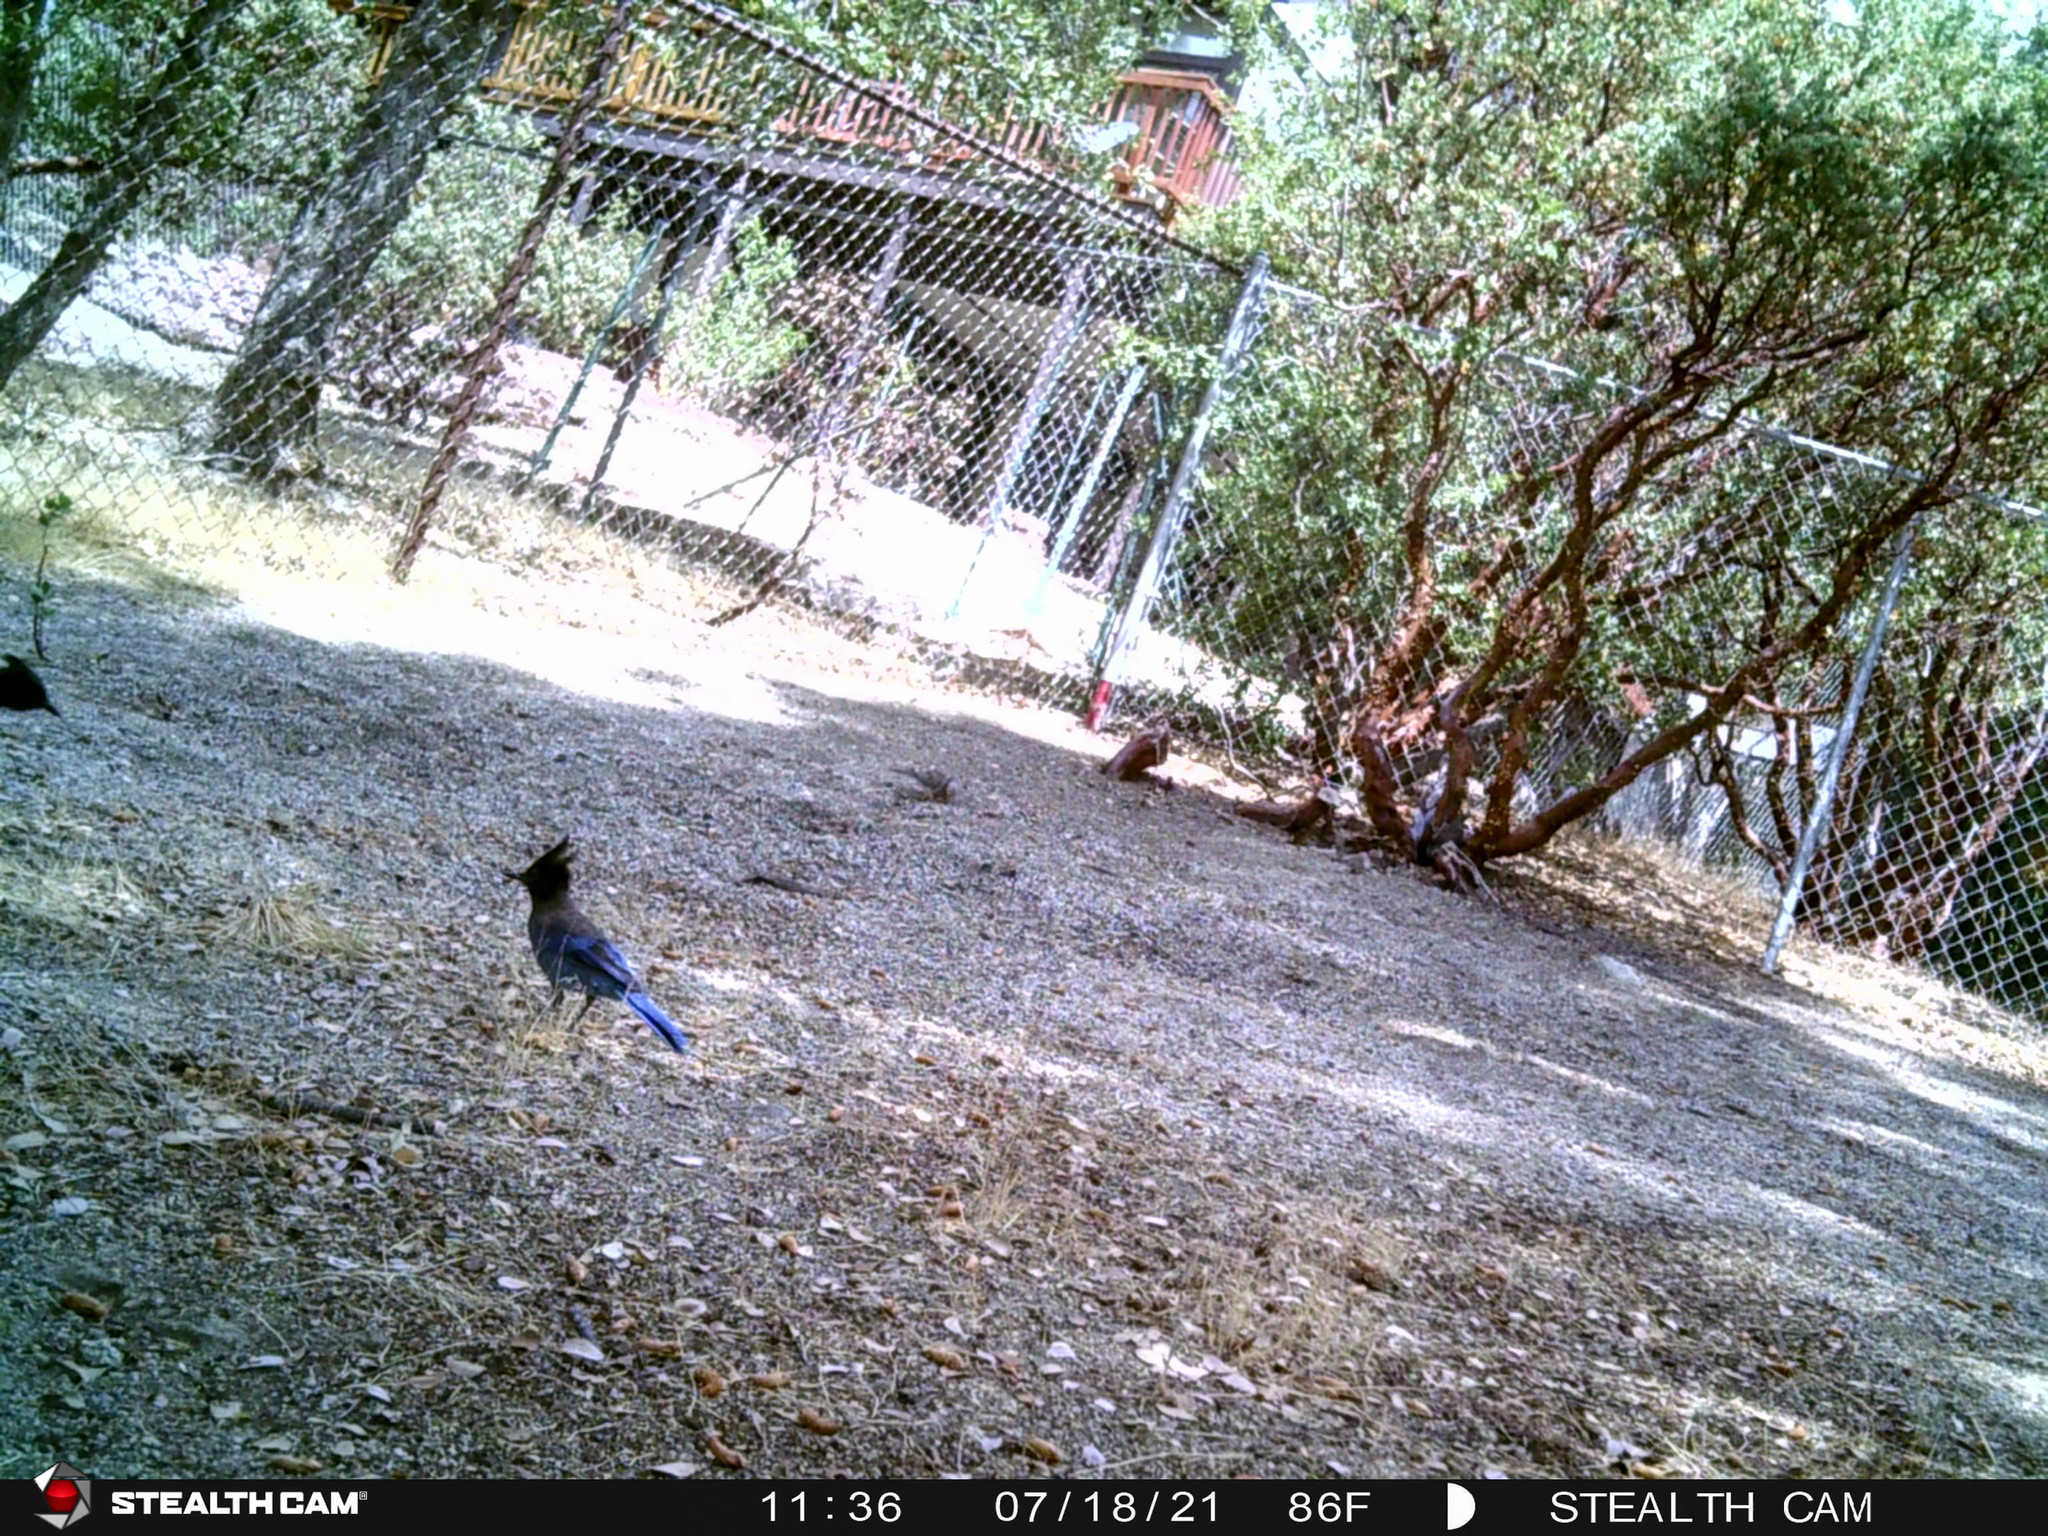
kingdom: Animalia
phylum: Chordata
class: Aves
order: Passeriformes
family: Corvidae
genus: Cyanocitta
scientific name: Cyanocitta stelleri
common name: Steller's jay
